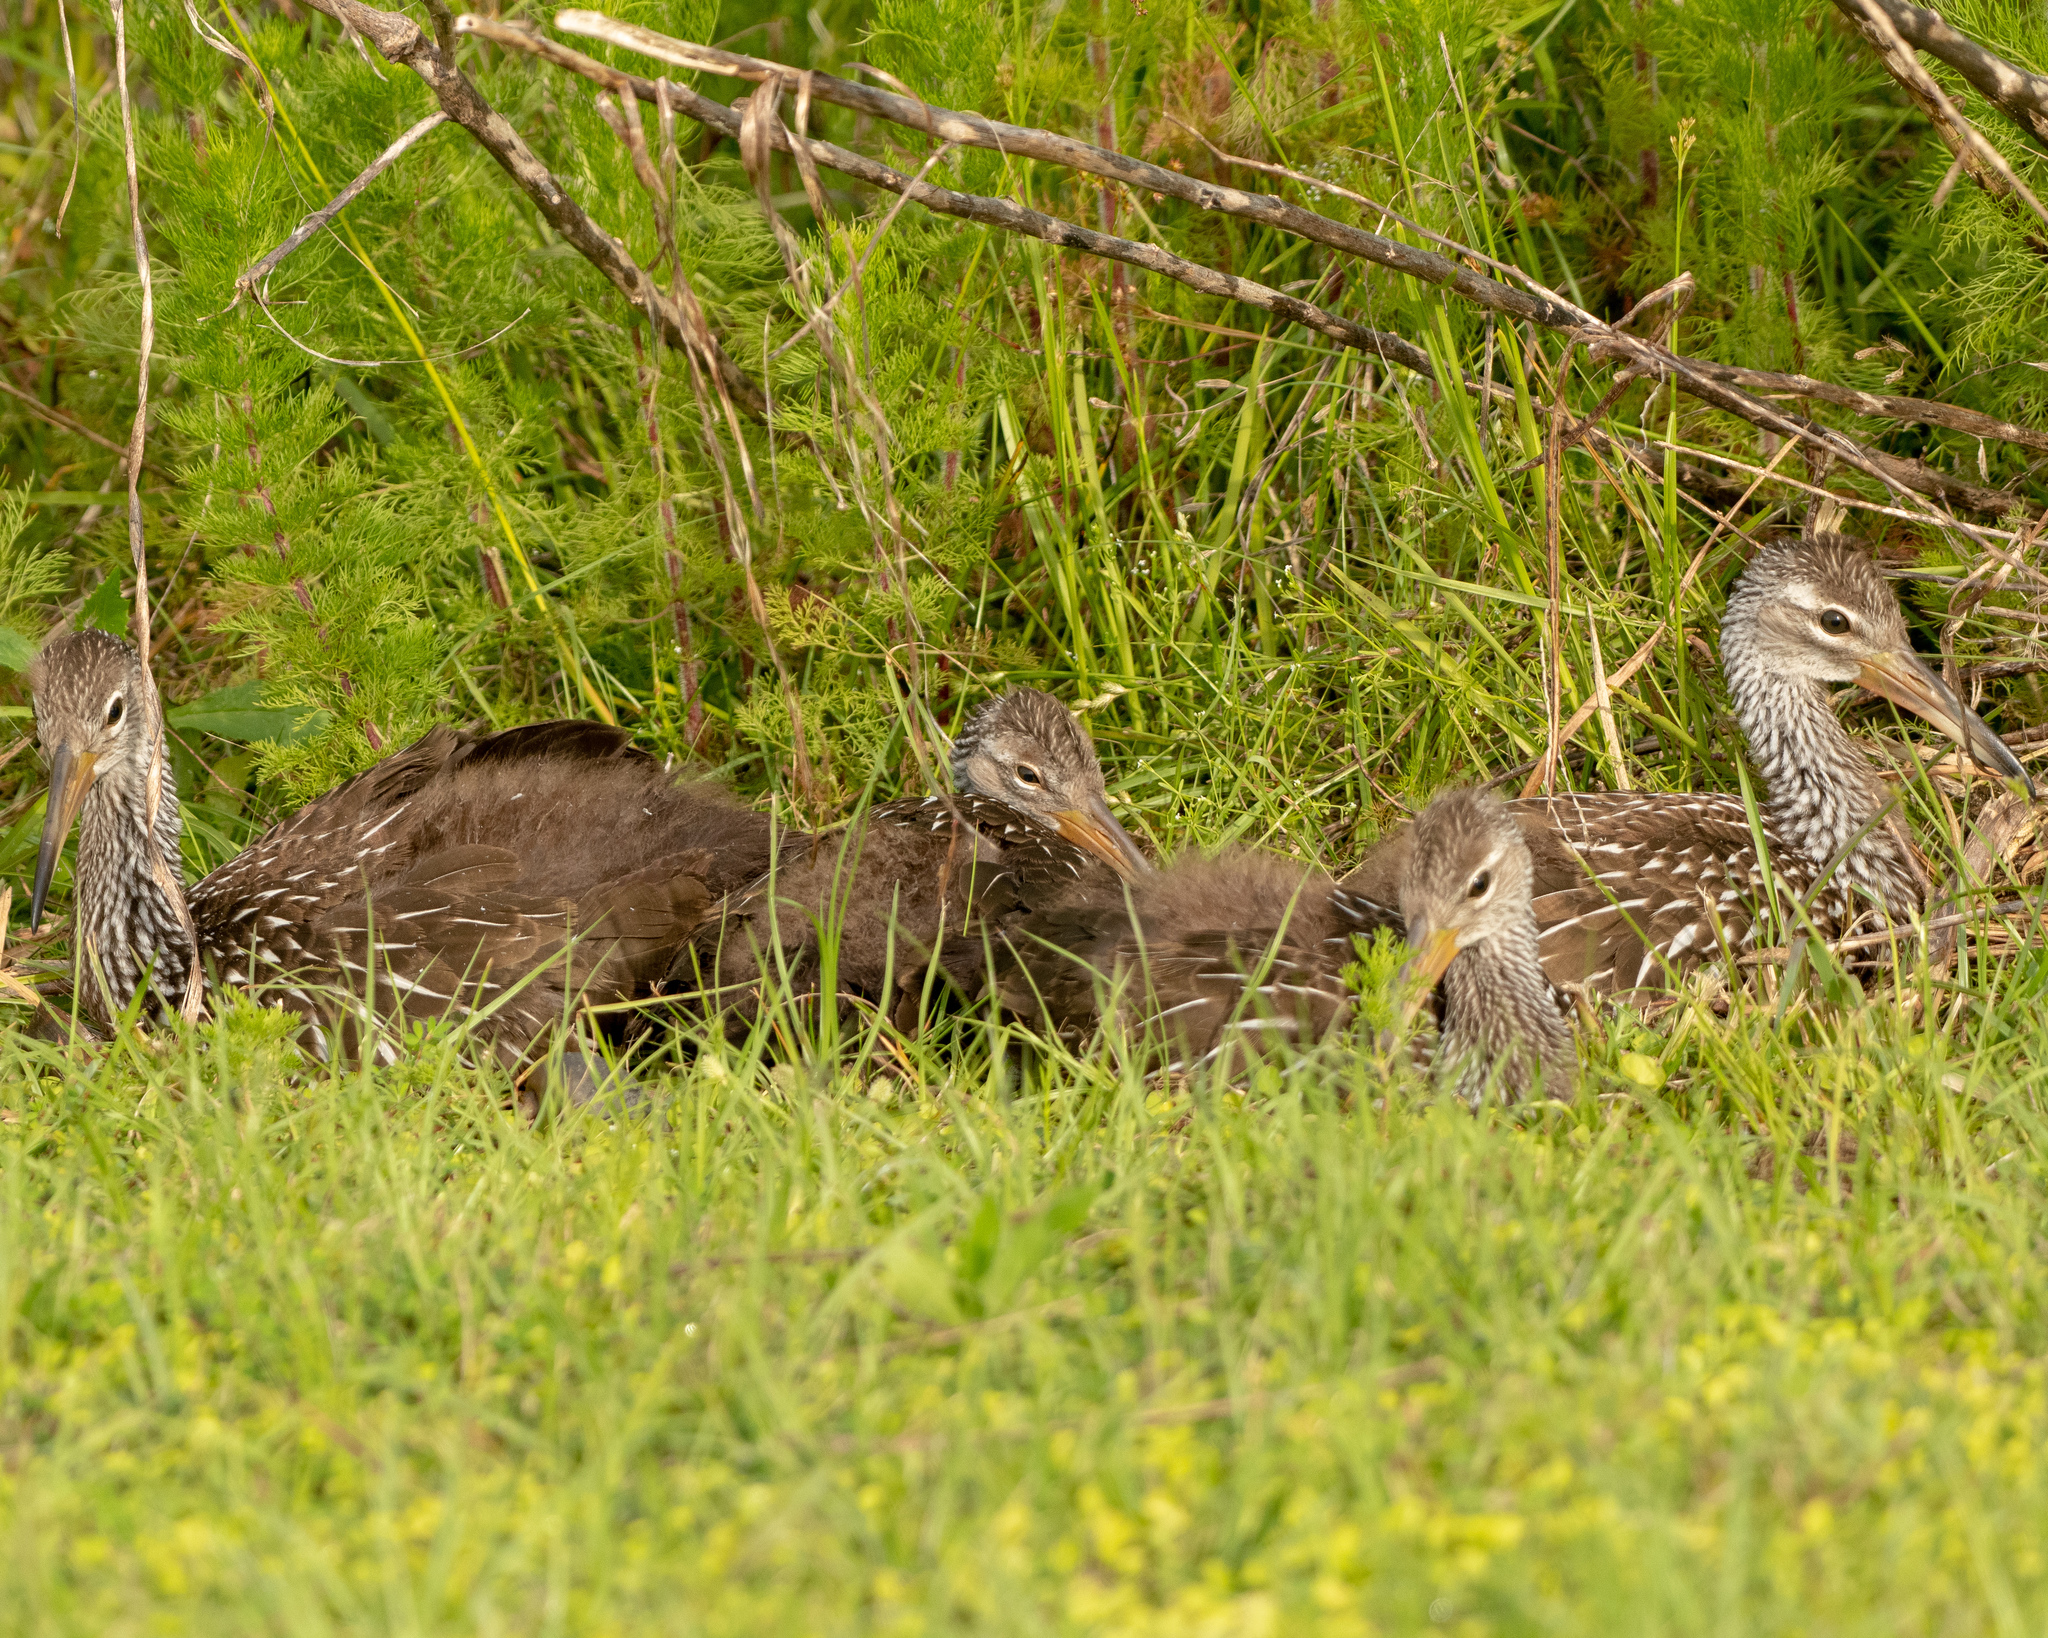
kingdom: Animalia
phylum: Chordata
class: Aves
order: Gruiformes
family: Aramidae
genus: Aramus
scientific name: Aramus guarauna
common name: Limpkin
